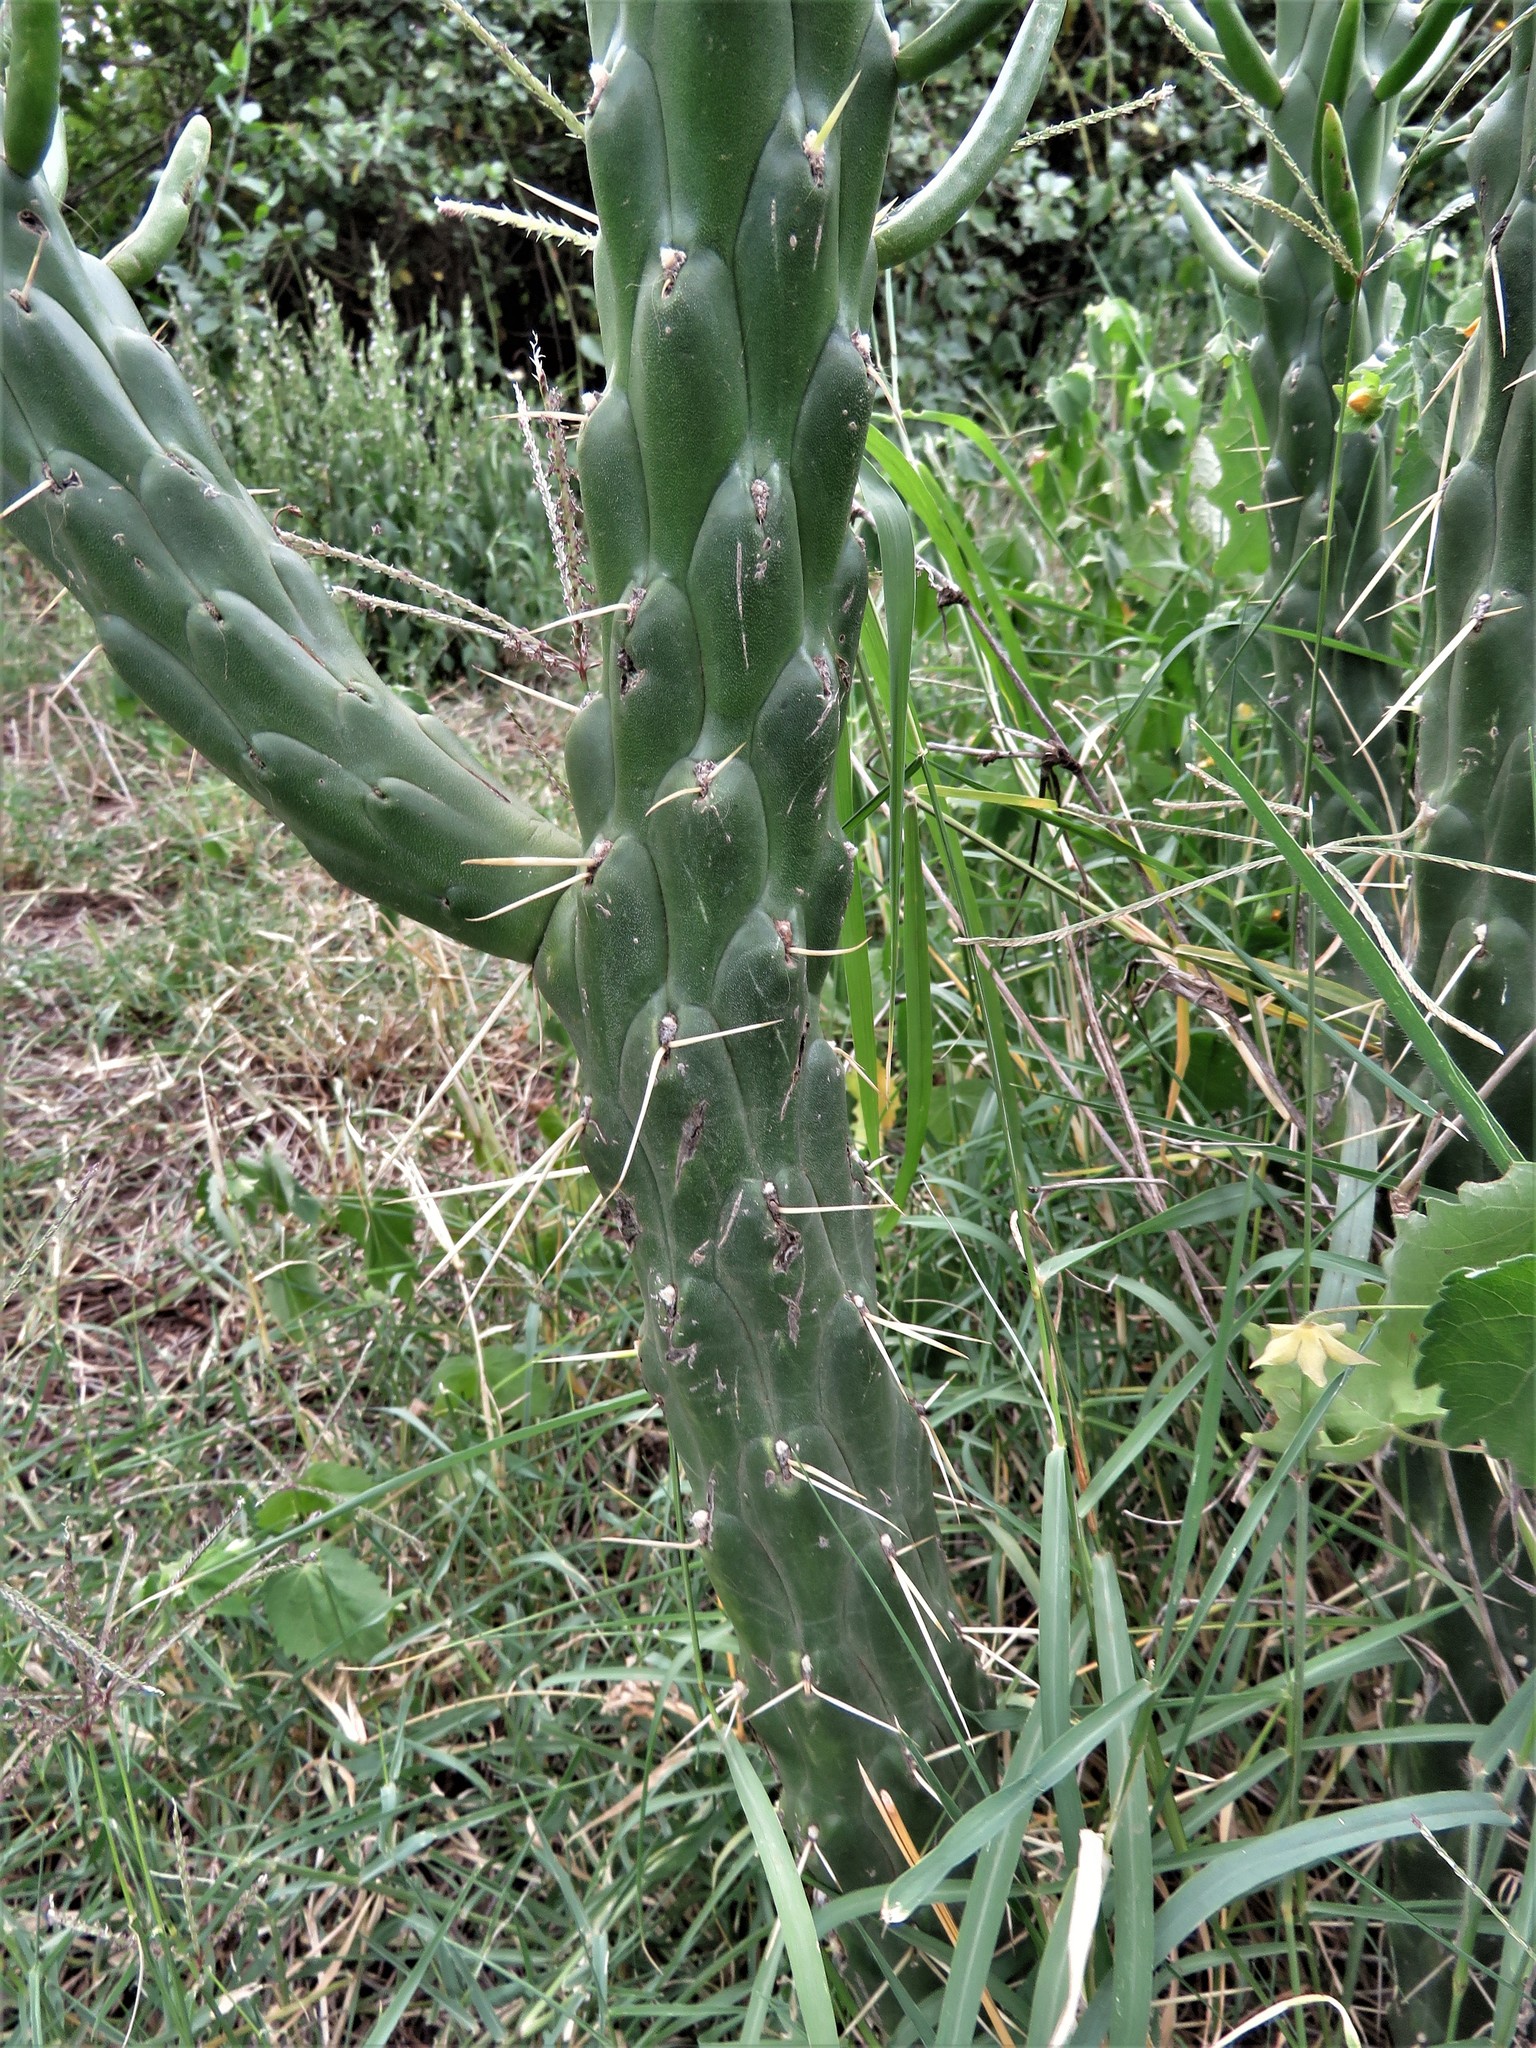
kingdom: Plantae
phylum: Tracheophyta
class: Magnoliopsida
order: Caryophyllales
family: Cactaceae
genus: Austrocylindropuntia
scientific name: Austrocylindropuntia subulata
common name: Eve's needle cactus
